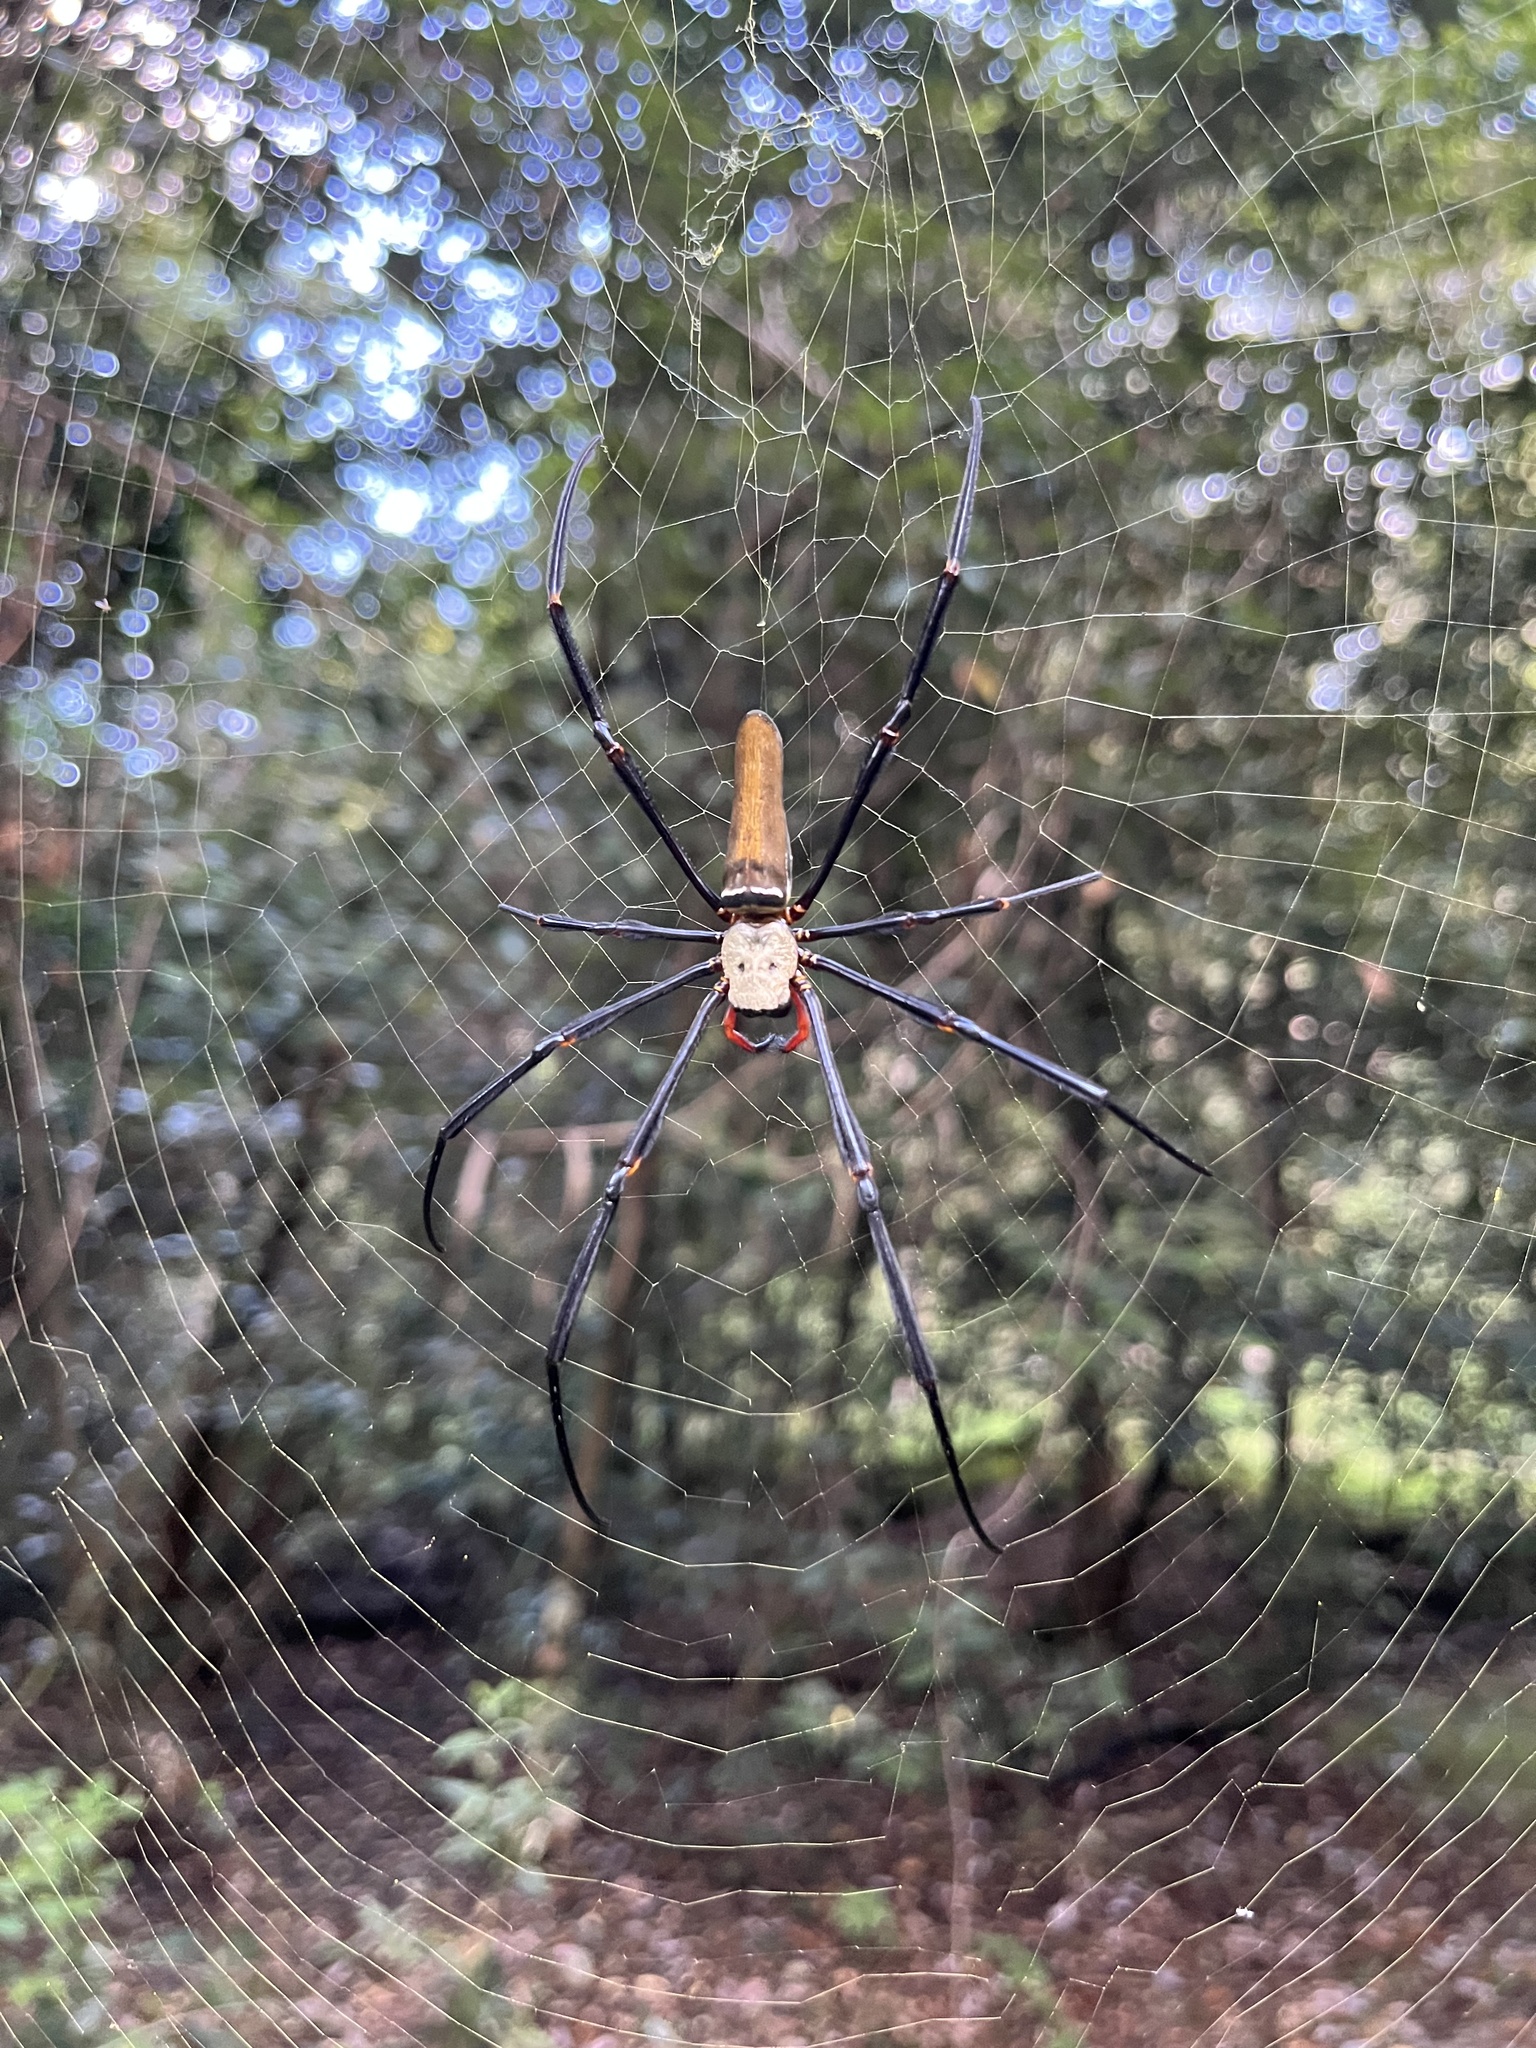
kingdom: Animalia
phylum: Arthropoda
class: Arachnida
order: Araneae
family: Araneidae
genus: Nephila
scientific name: Nephila pilipes
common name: Giant golden orb weaver
